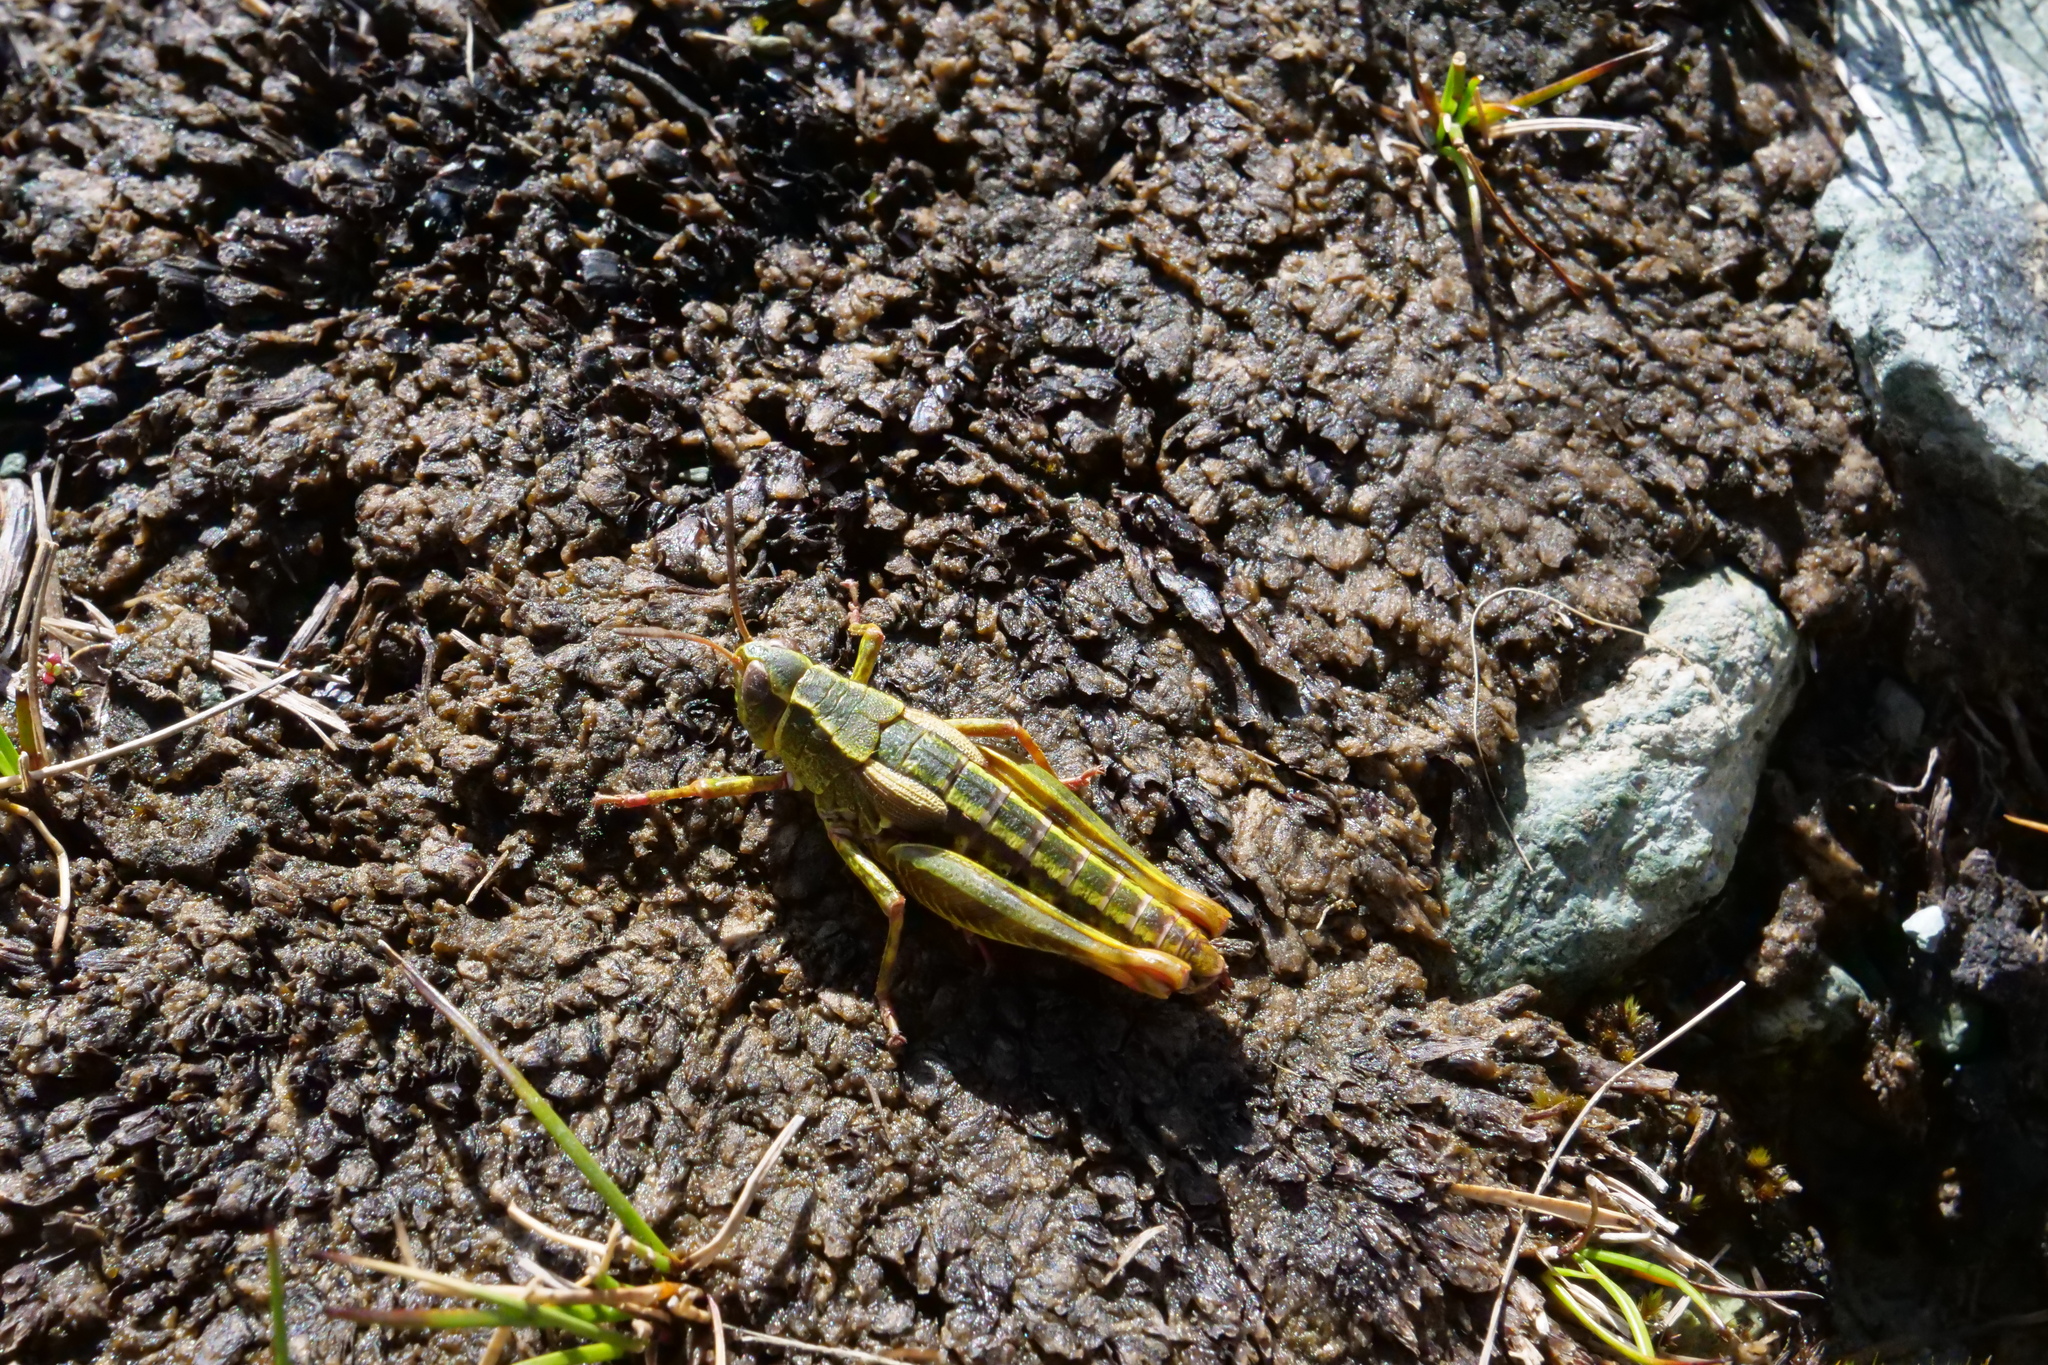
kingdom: Animalia
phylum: Arthropoda
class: Insecta
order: Orthoptera
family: Acrididae
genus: Sigaus
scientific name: Sigaus australis
